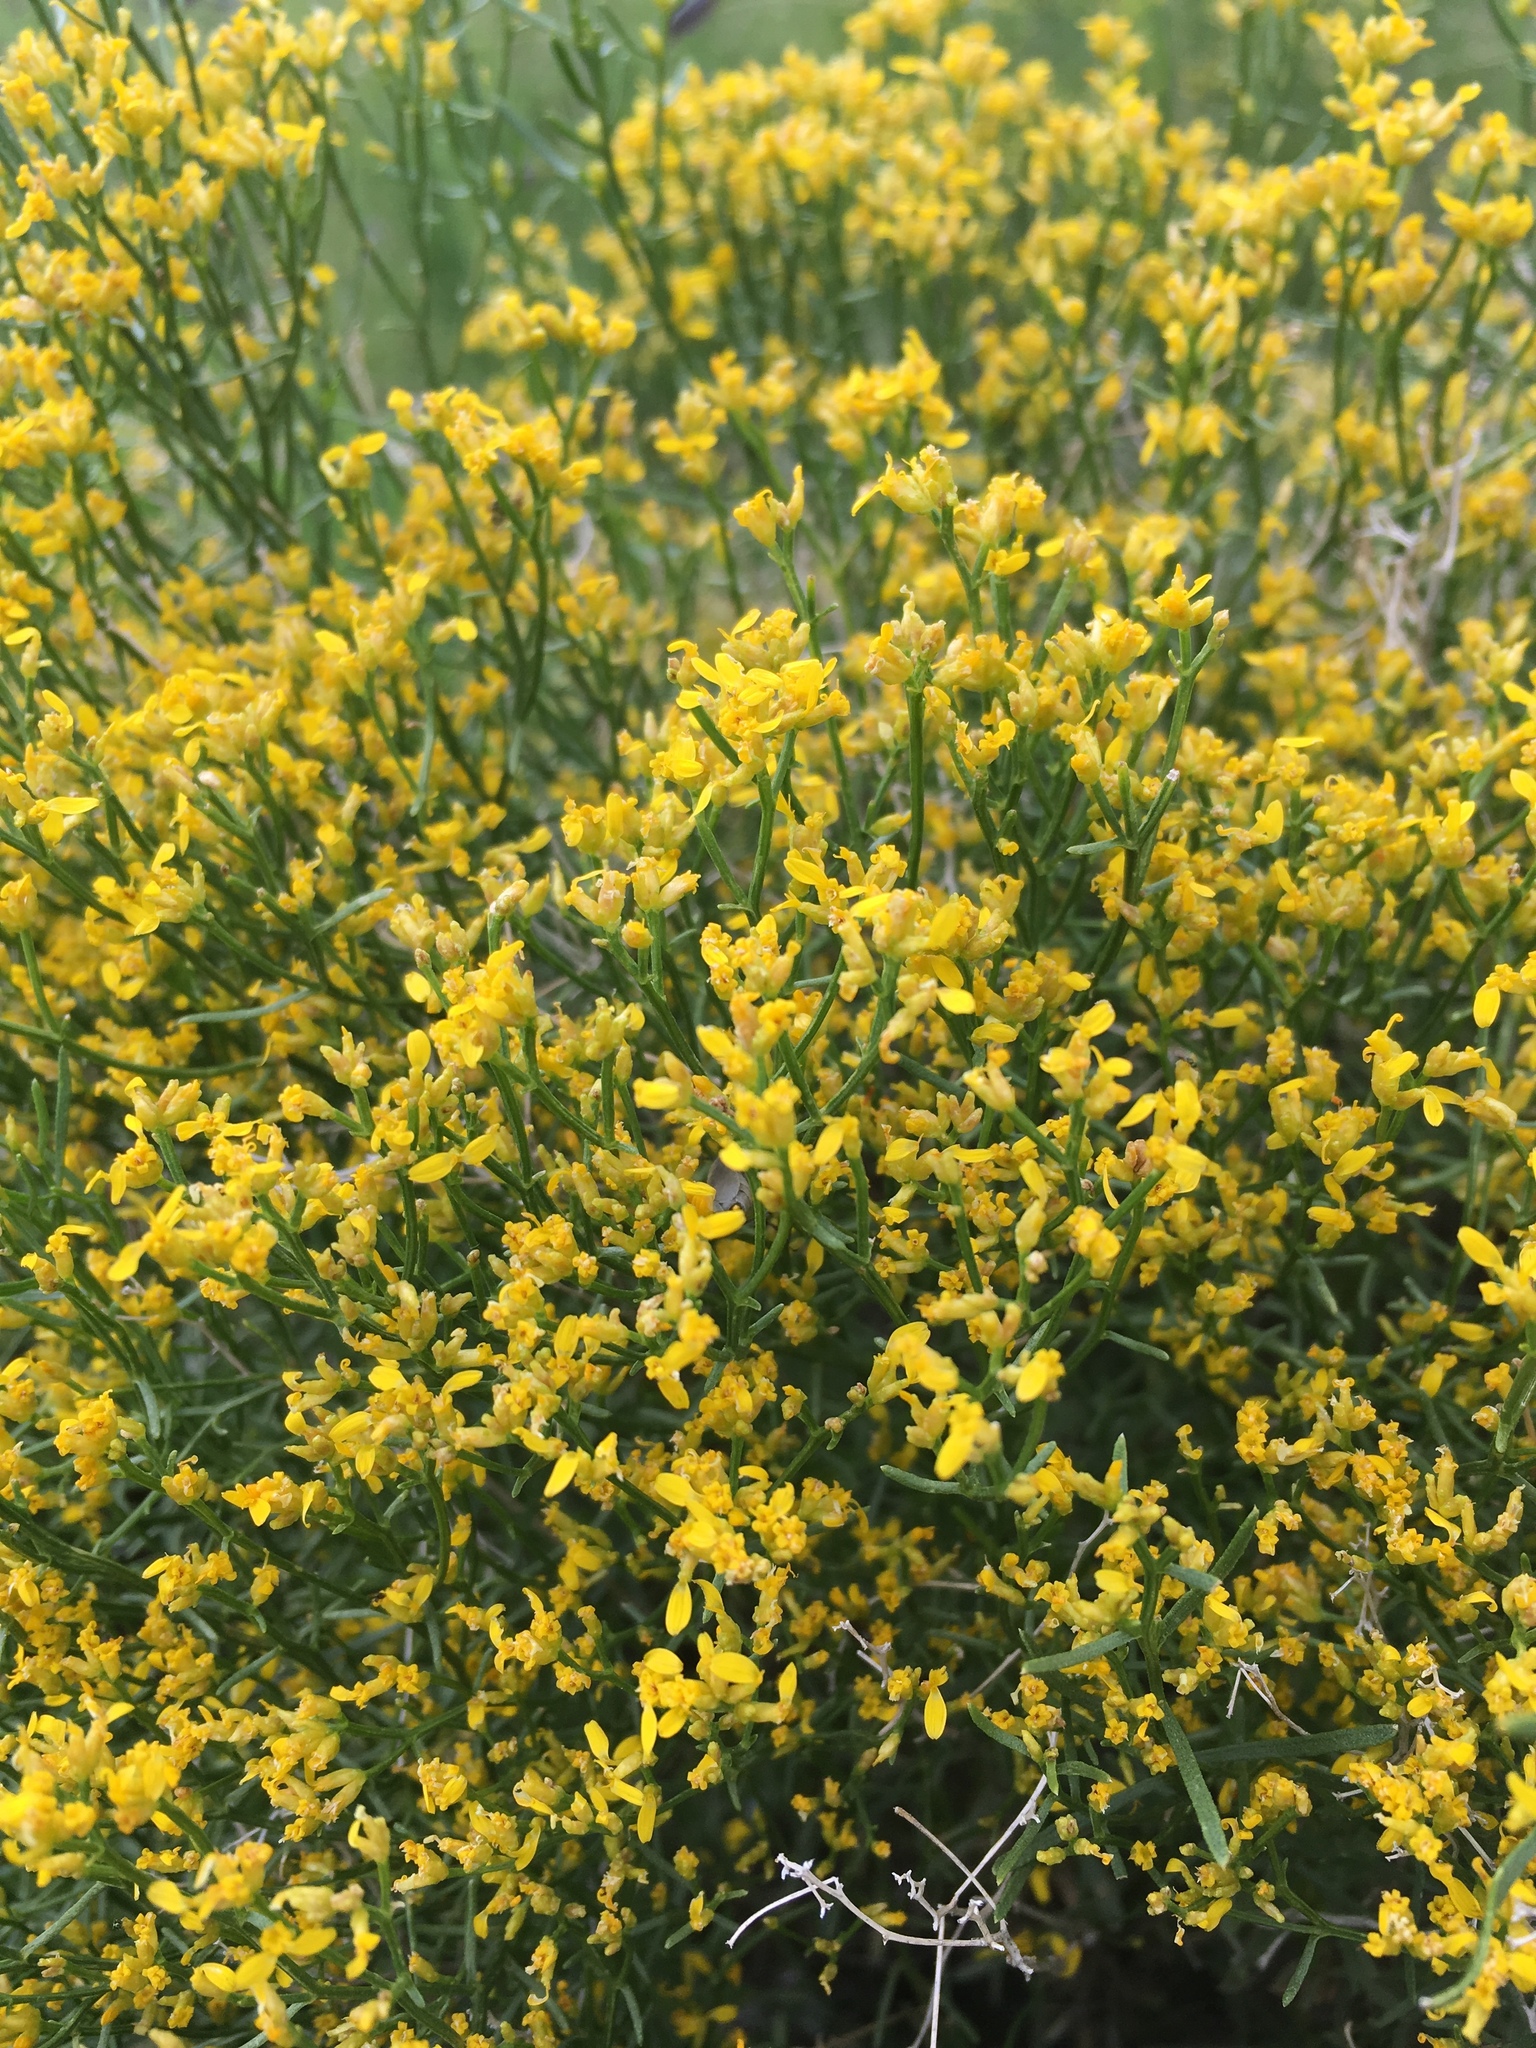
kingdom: Plantae
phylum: Tracheophyta
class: Magnoliopsida
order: Asterales
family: Asteraceae
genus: Gutierrezia
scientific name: Gutierrezia microcephala
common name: Thread snakeweed
